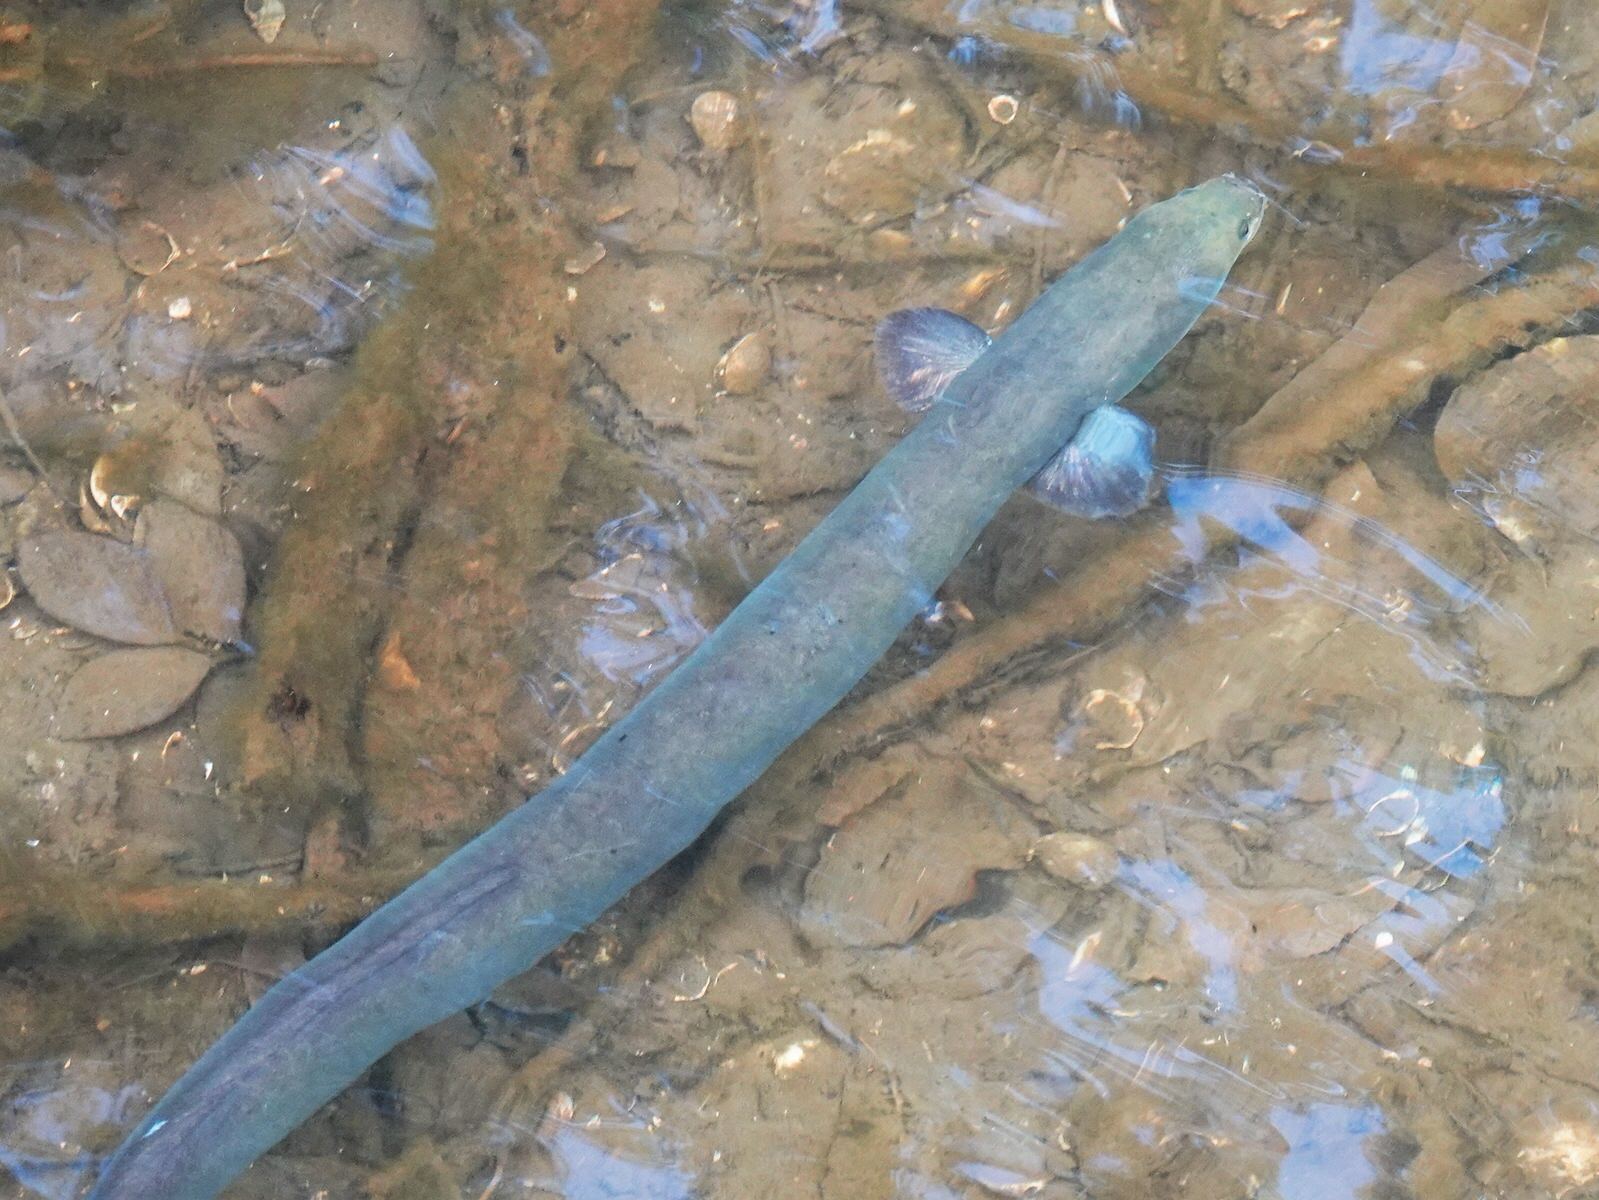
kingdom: Animalia
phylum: Chordata
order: Anguilliformes
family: Anguillidae
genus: Anguilla
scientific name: Anguilla australis
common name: Shortfin eel
